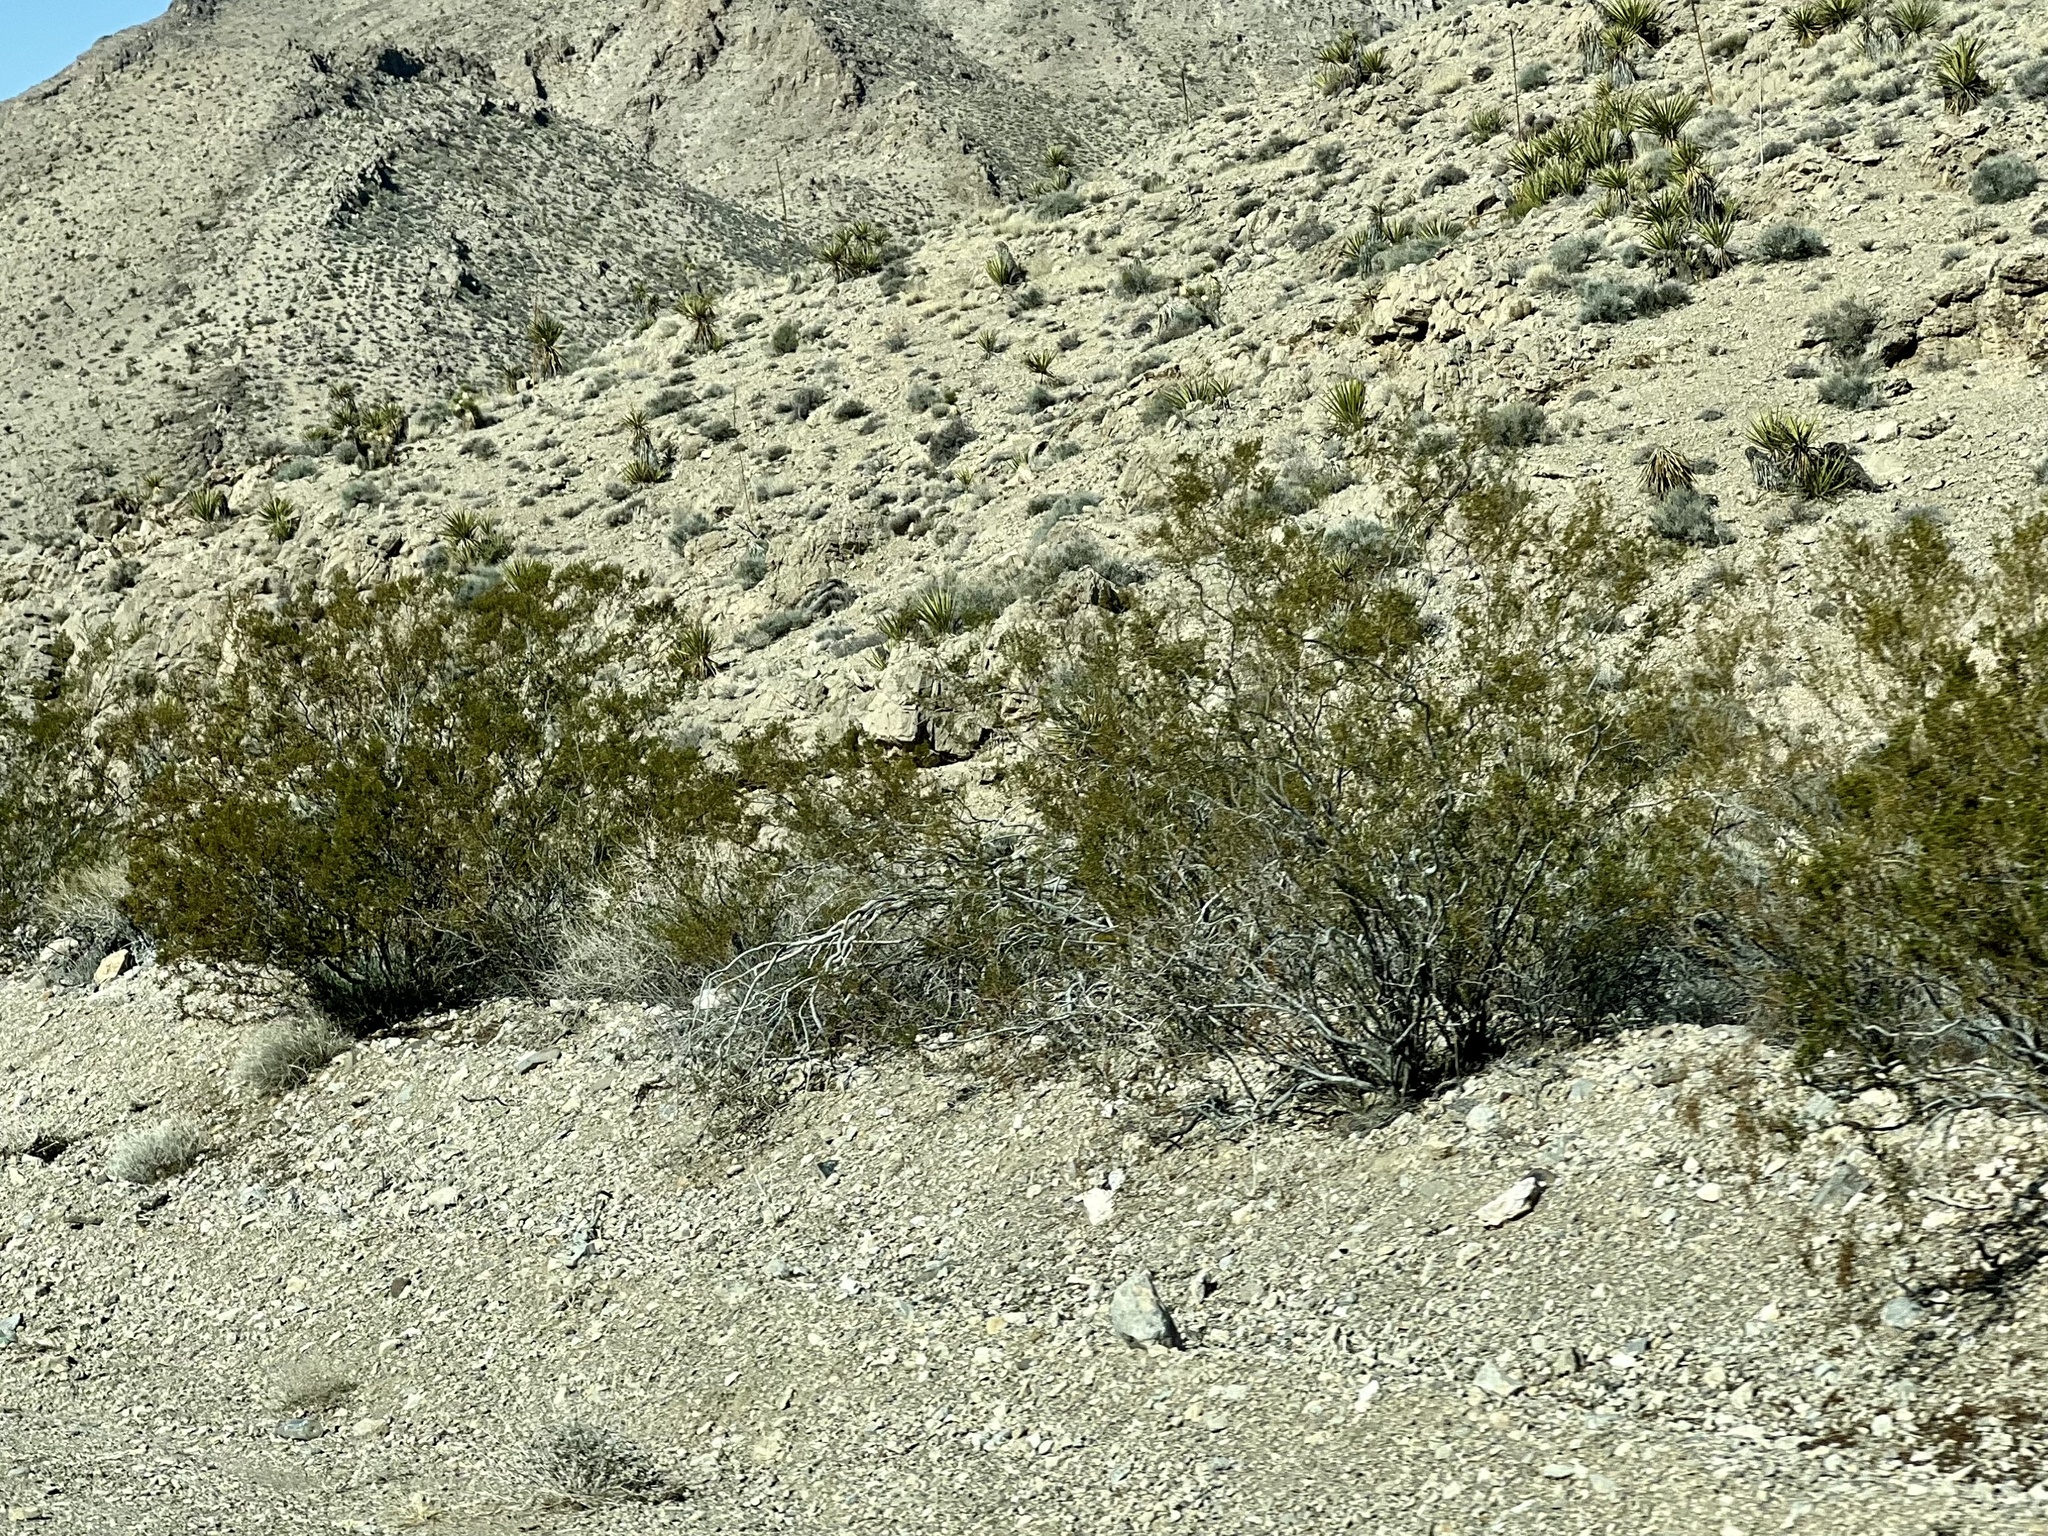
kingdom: Plantae
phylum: Tracheophyta
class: Magnoliopsida
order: Zygophyllales
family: Zygophyllaceae
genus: Larrea
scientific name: Larrea tridentata
